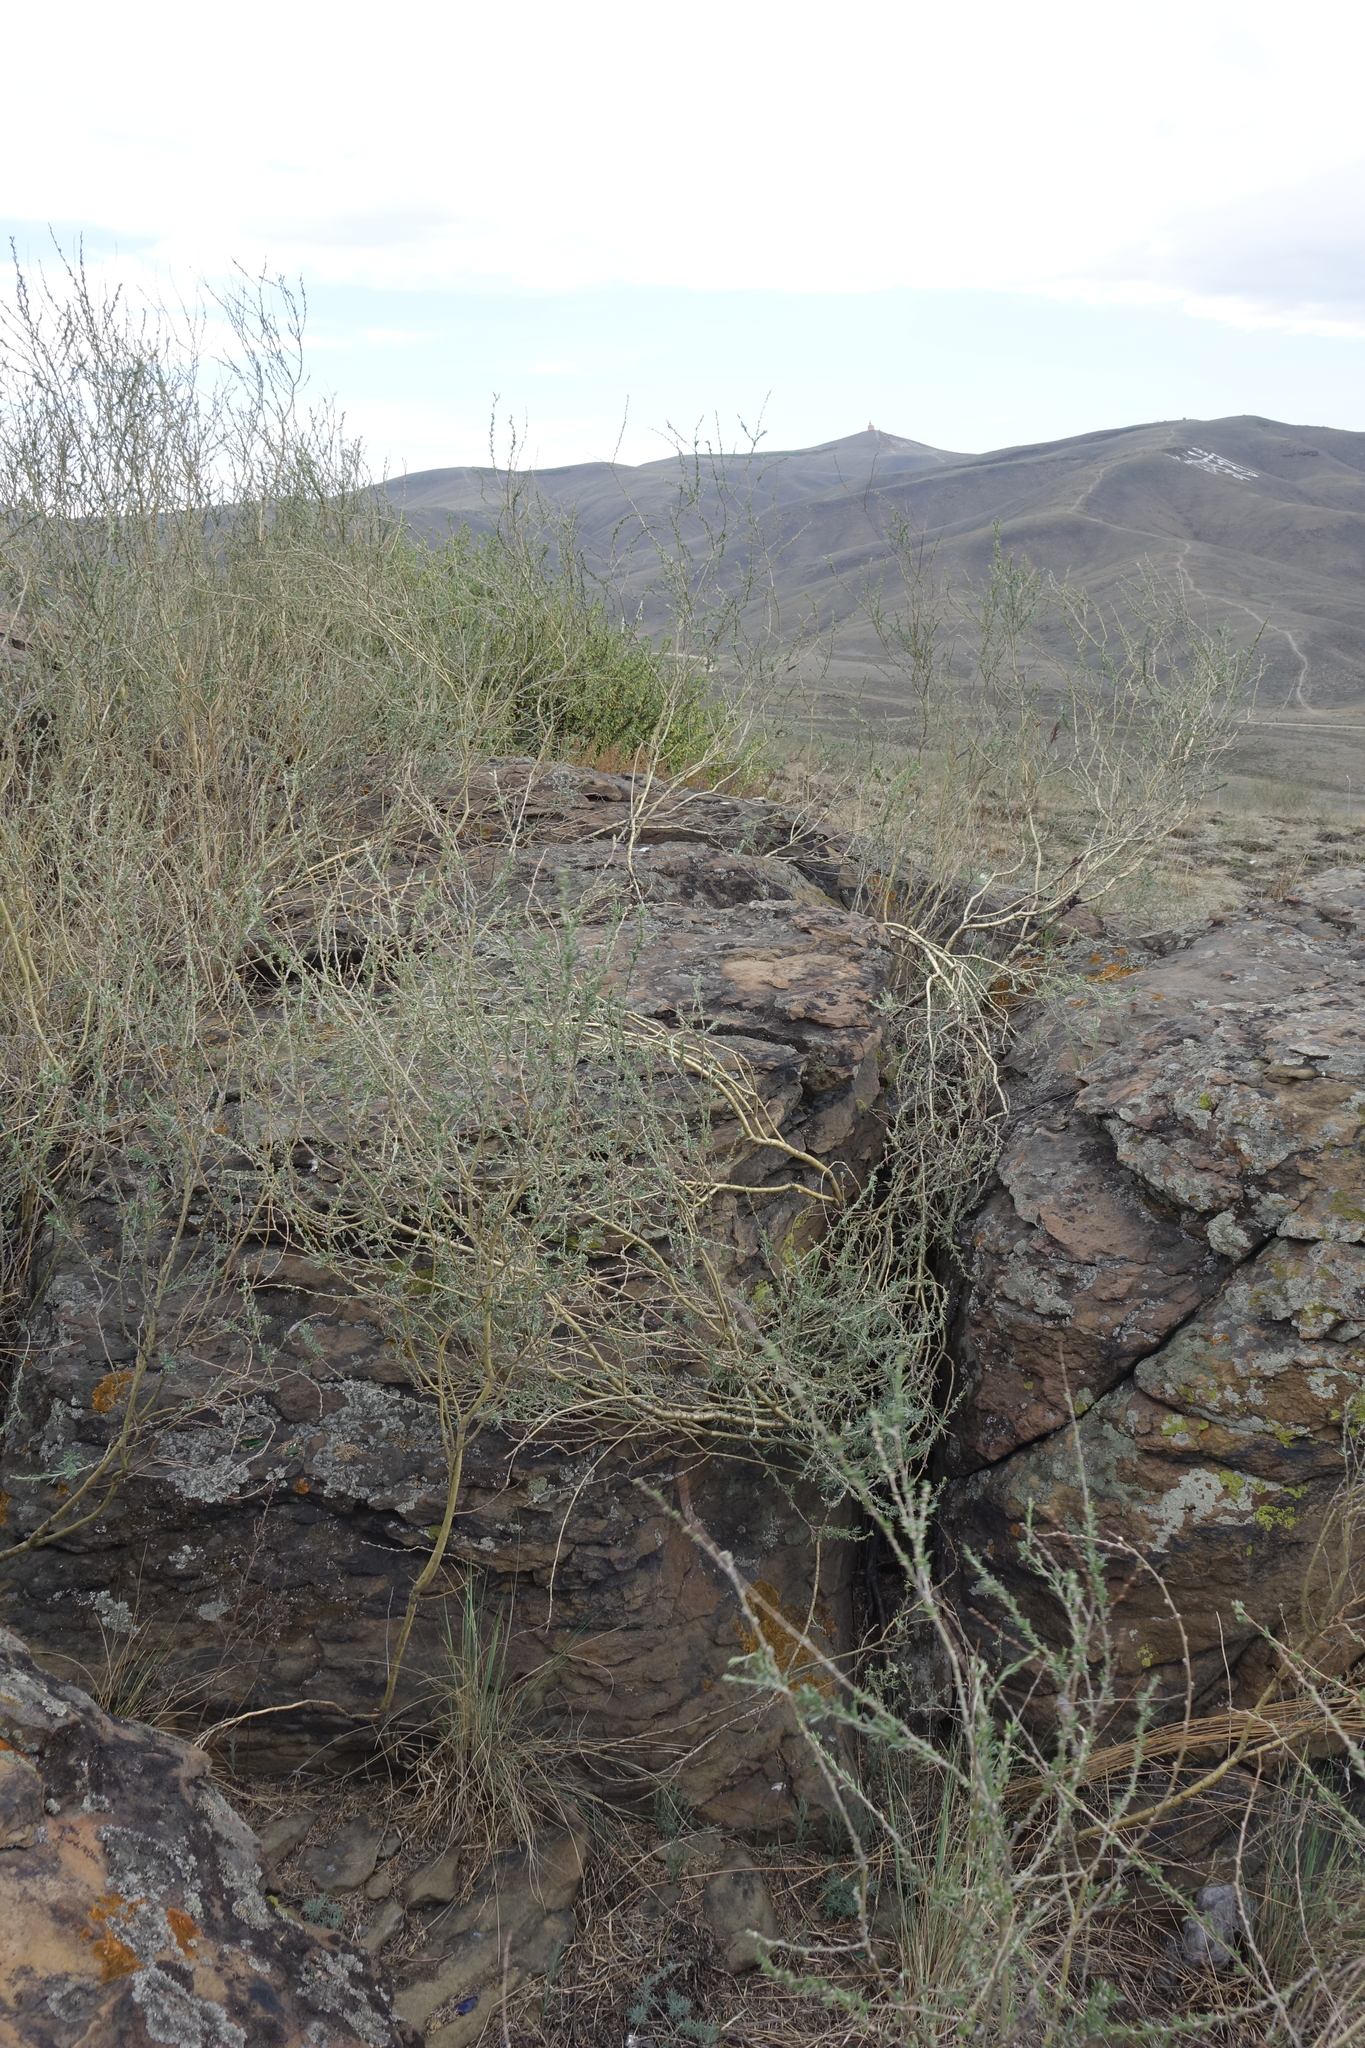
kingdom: Plantae
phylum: Tracheophyta
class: Magnoliopsida
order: Fabales
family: Fabaceae
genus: Caragana
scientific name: Caragana pygmaea
